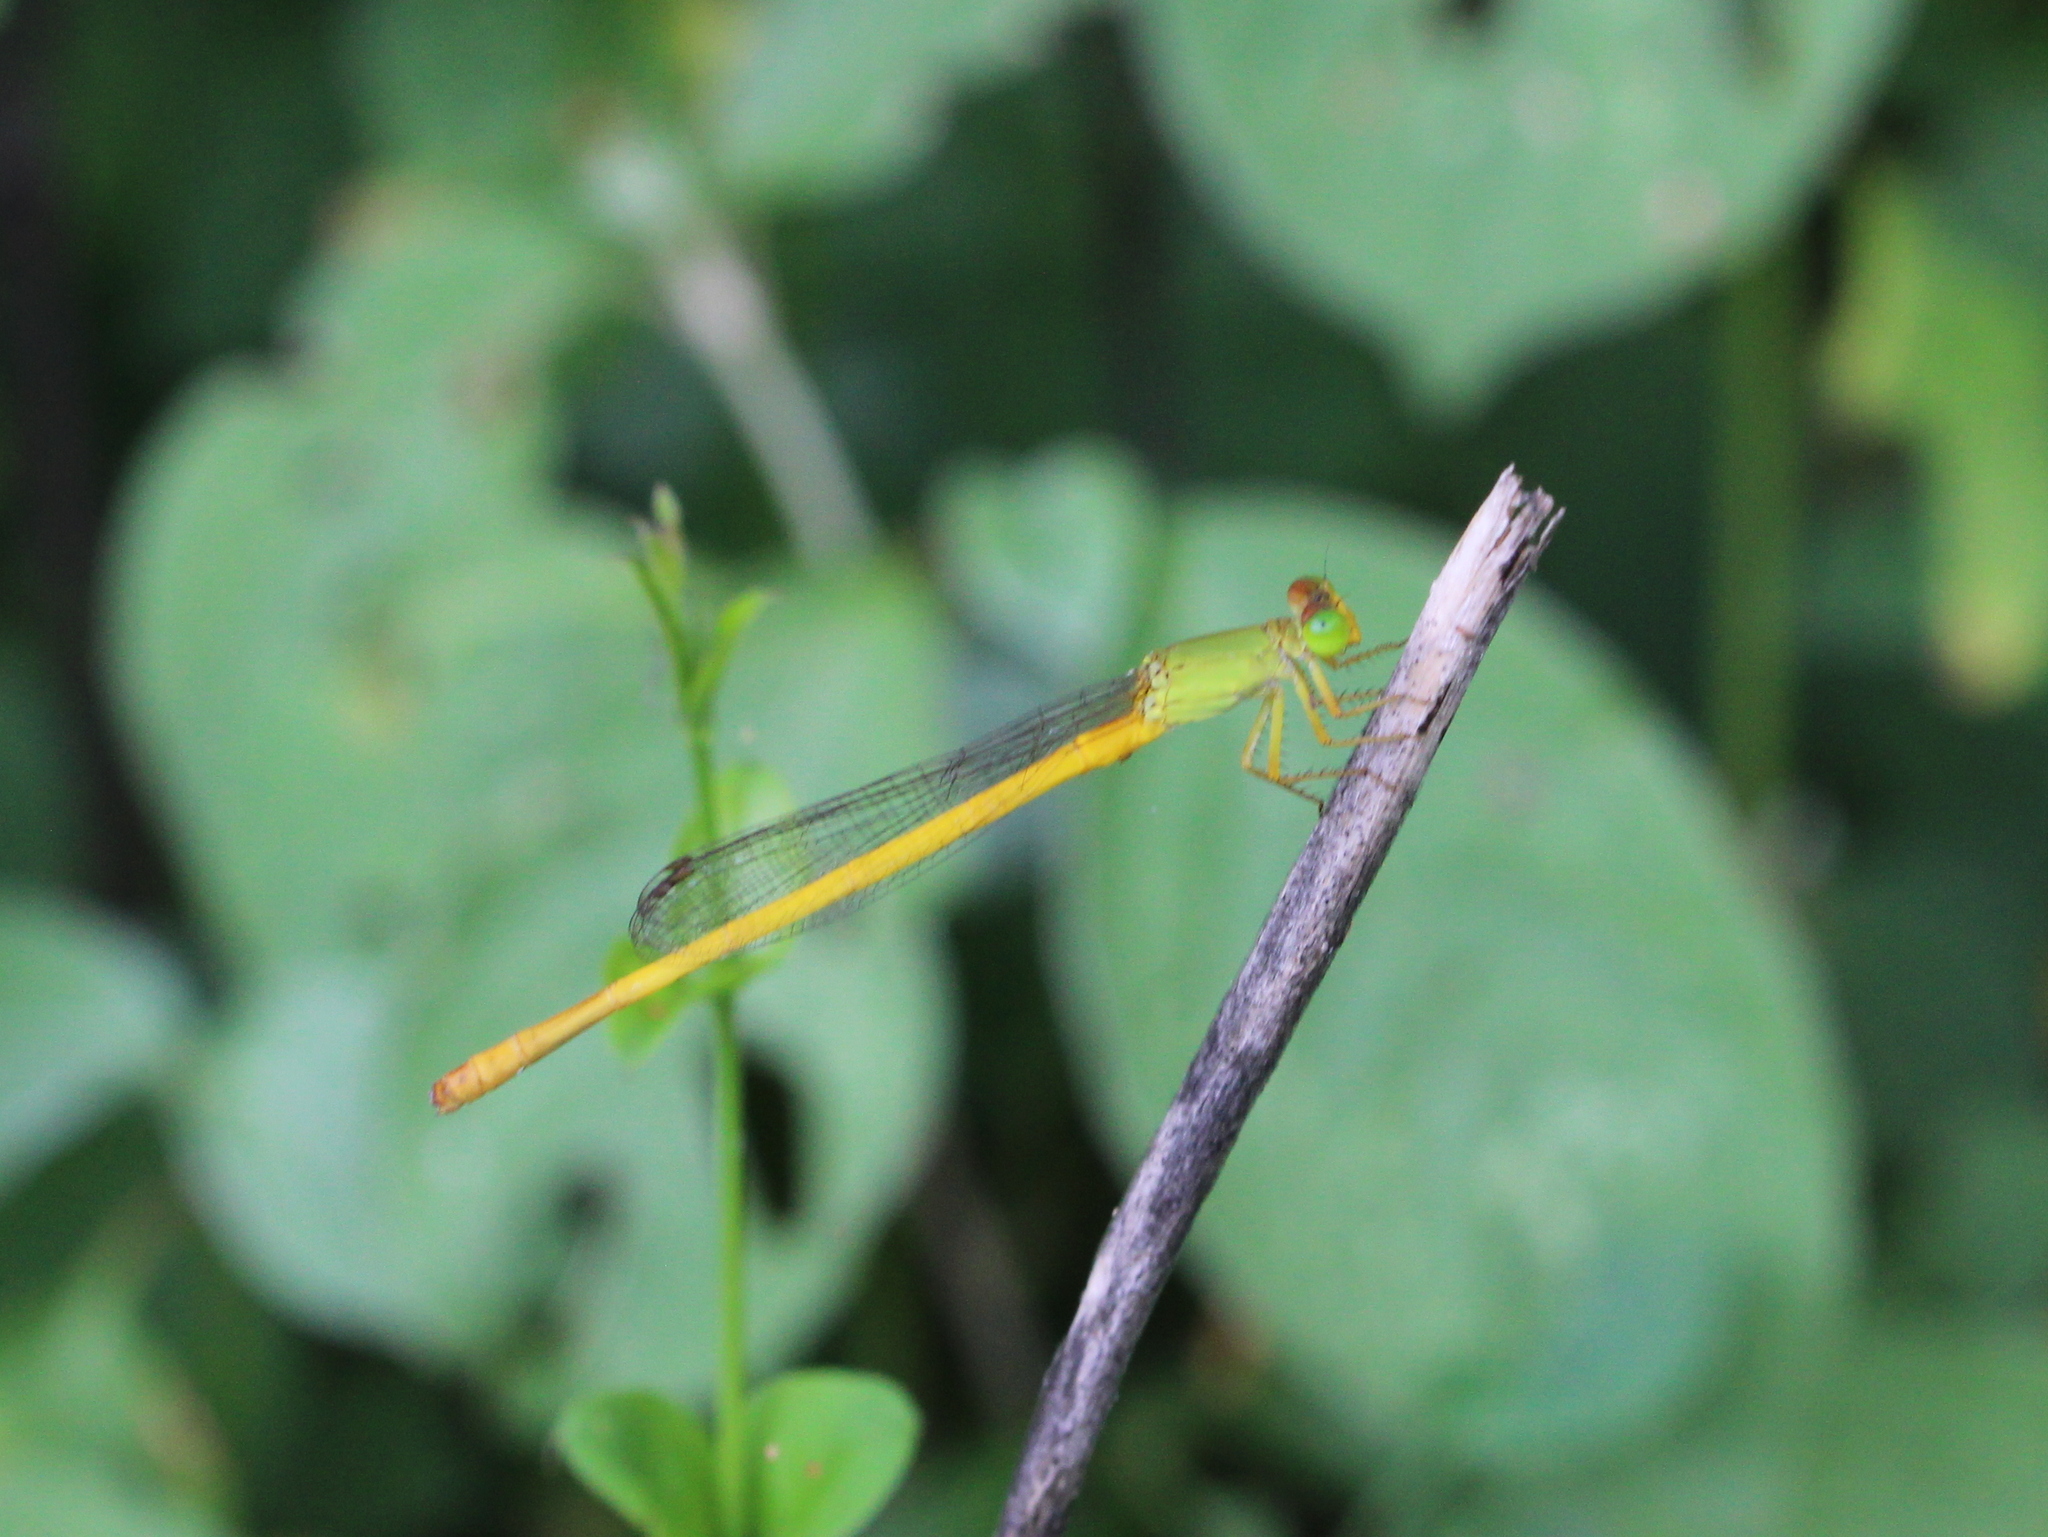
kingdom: Animalia
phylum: Arthropoda
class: Insecta
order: Odonata
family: Coenagrionidae
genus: Ceriagrion
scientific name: Ceriagrion coromandelianum
